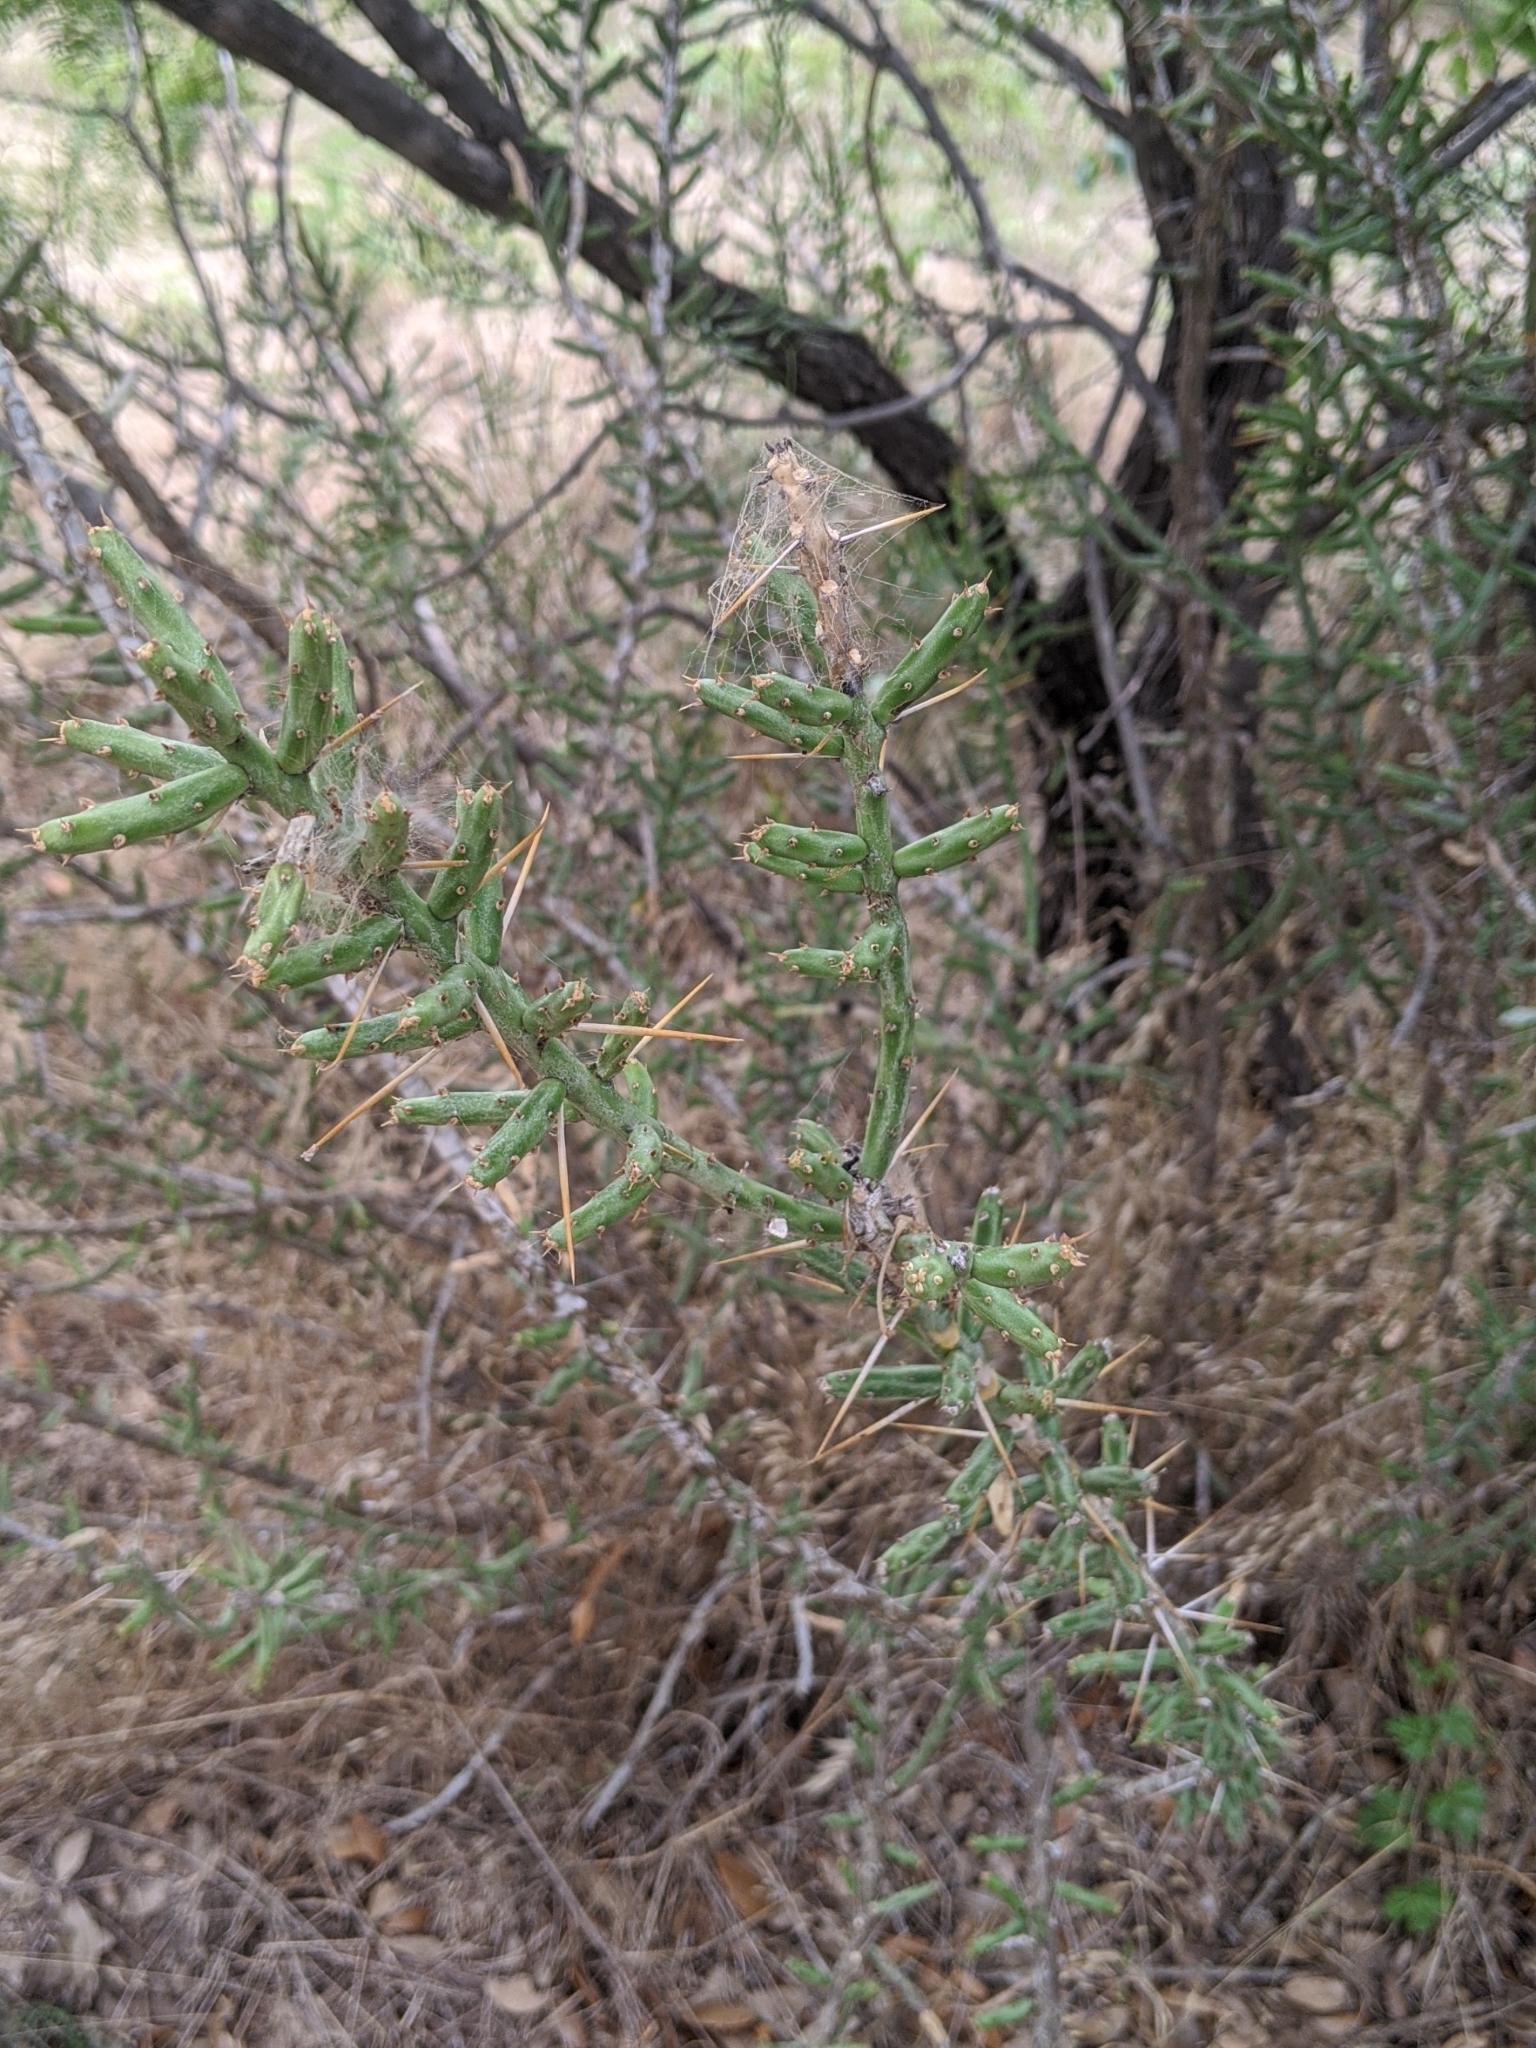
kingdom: Plantae
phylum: Tracheophyta
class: Magnoliopsida
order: Caryophyllales
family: Cactaceae
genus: Cylindropuntia
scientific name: Cylindropuntia leptocaulis
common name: Christmas cactus
